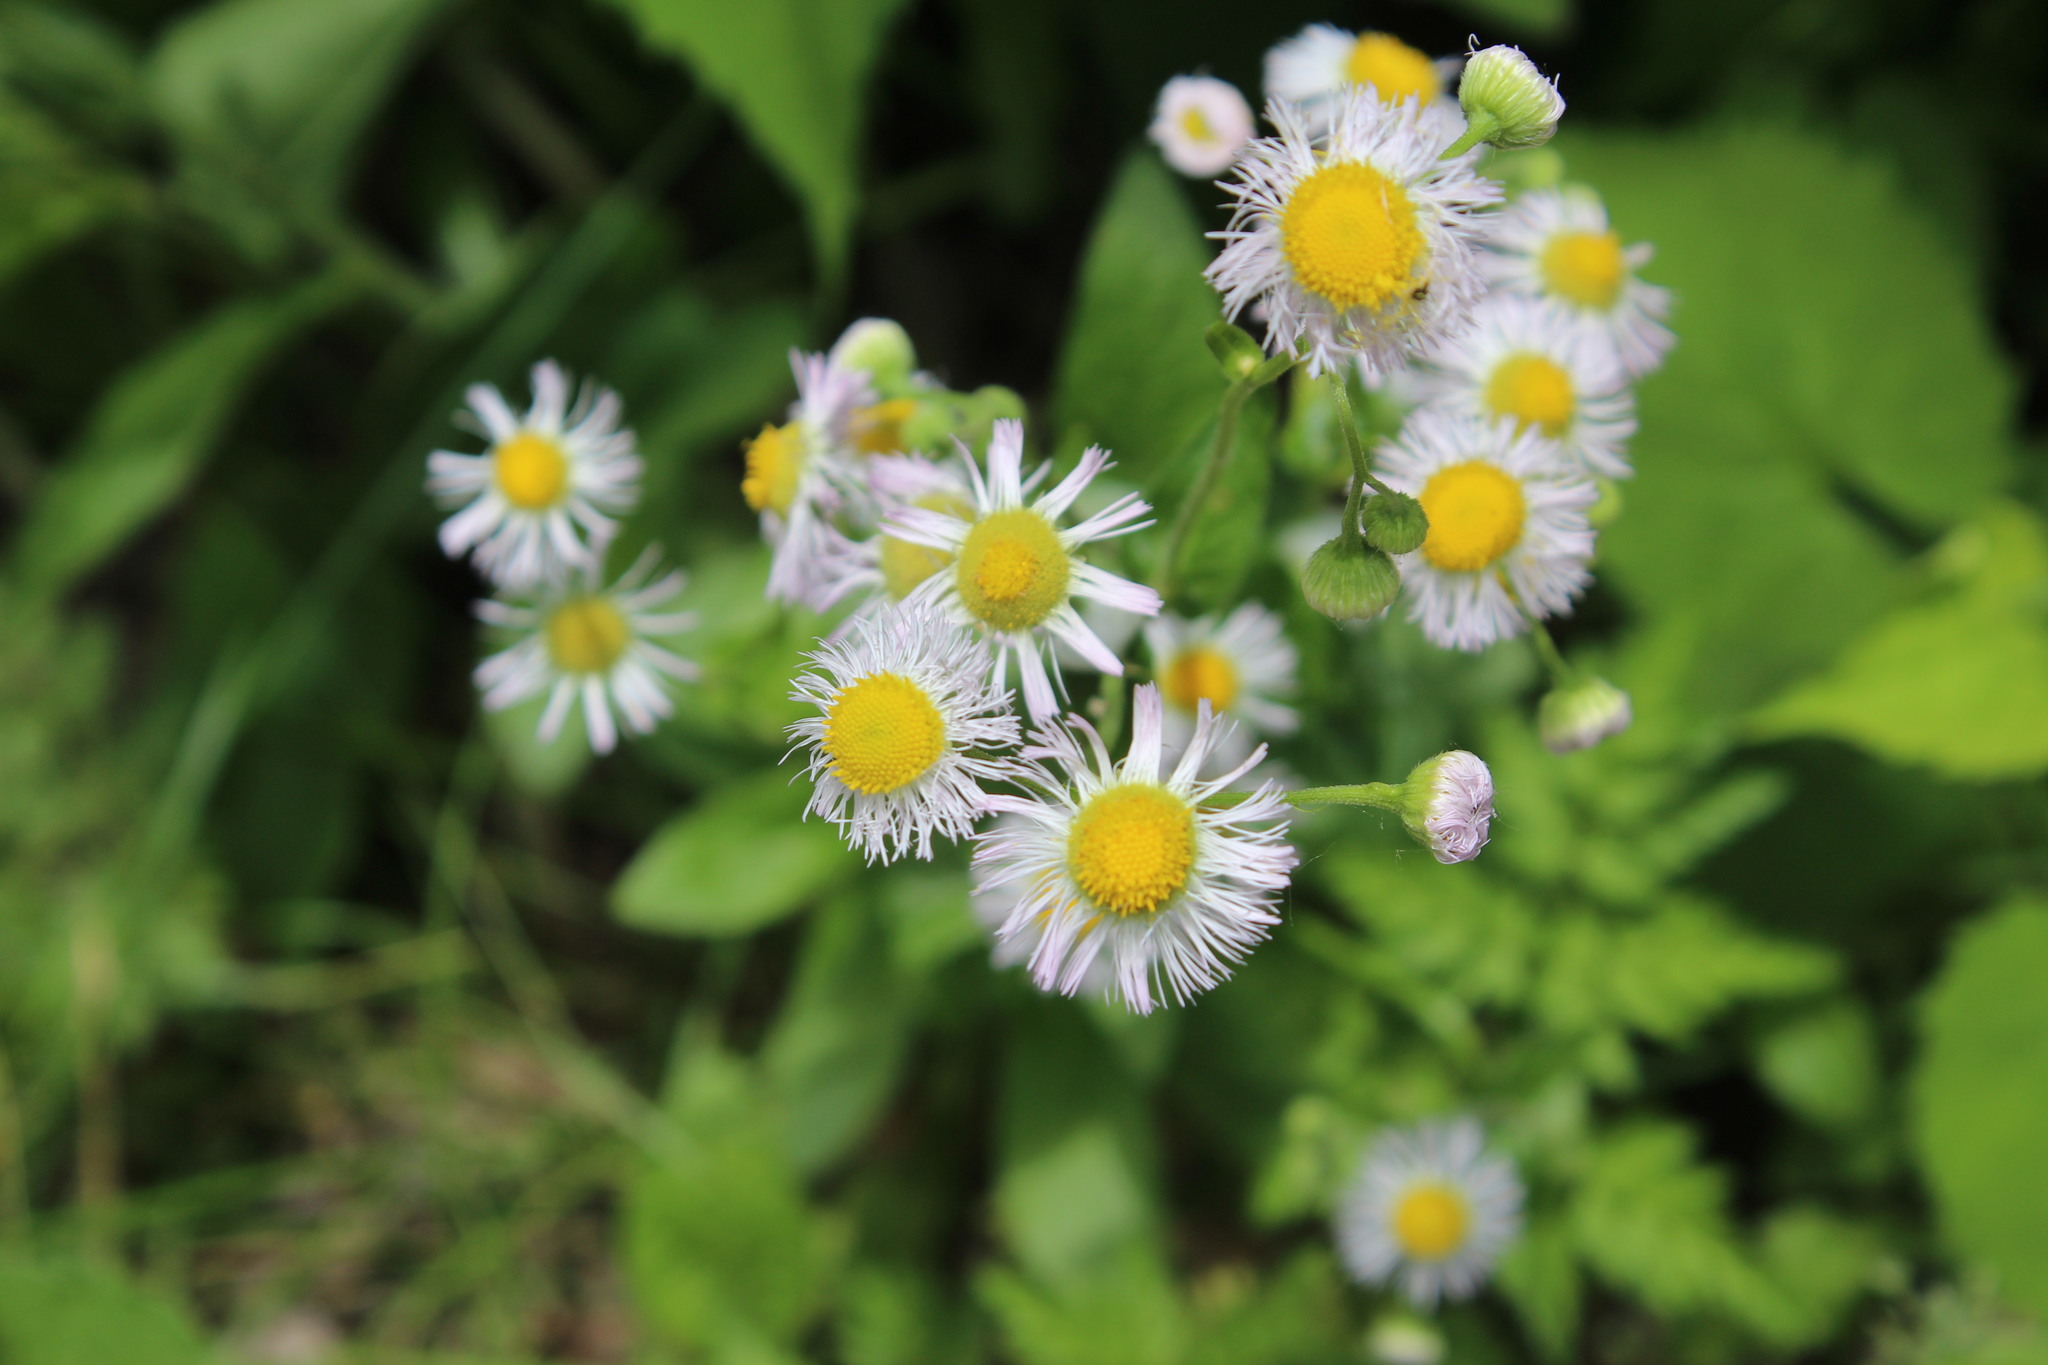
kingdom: Plantae
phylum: Tracheophyta
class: Magnoliopsida
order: Asterales
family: Asteraceae
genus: Erigeron
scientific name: Erigeron philadelphicus
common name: Robin's-plantain
